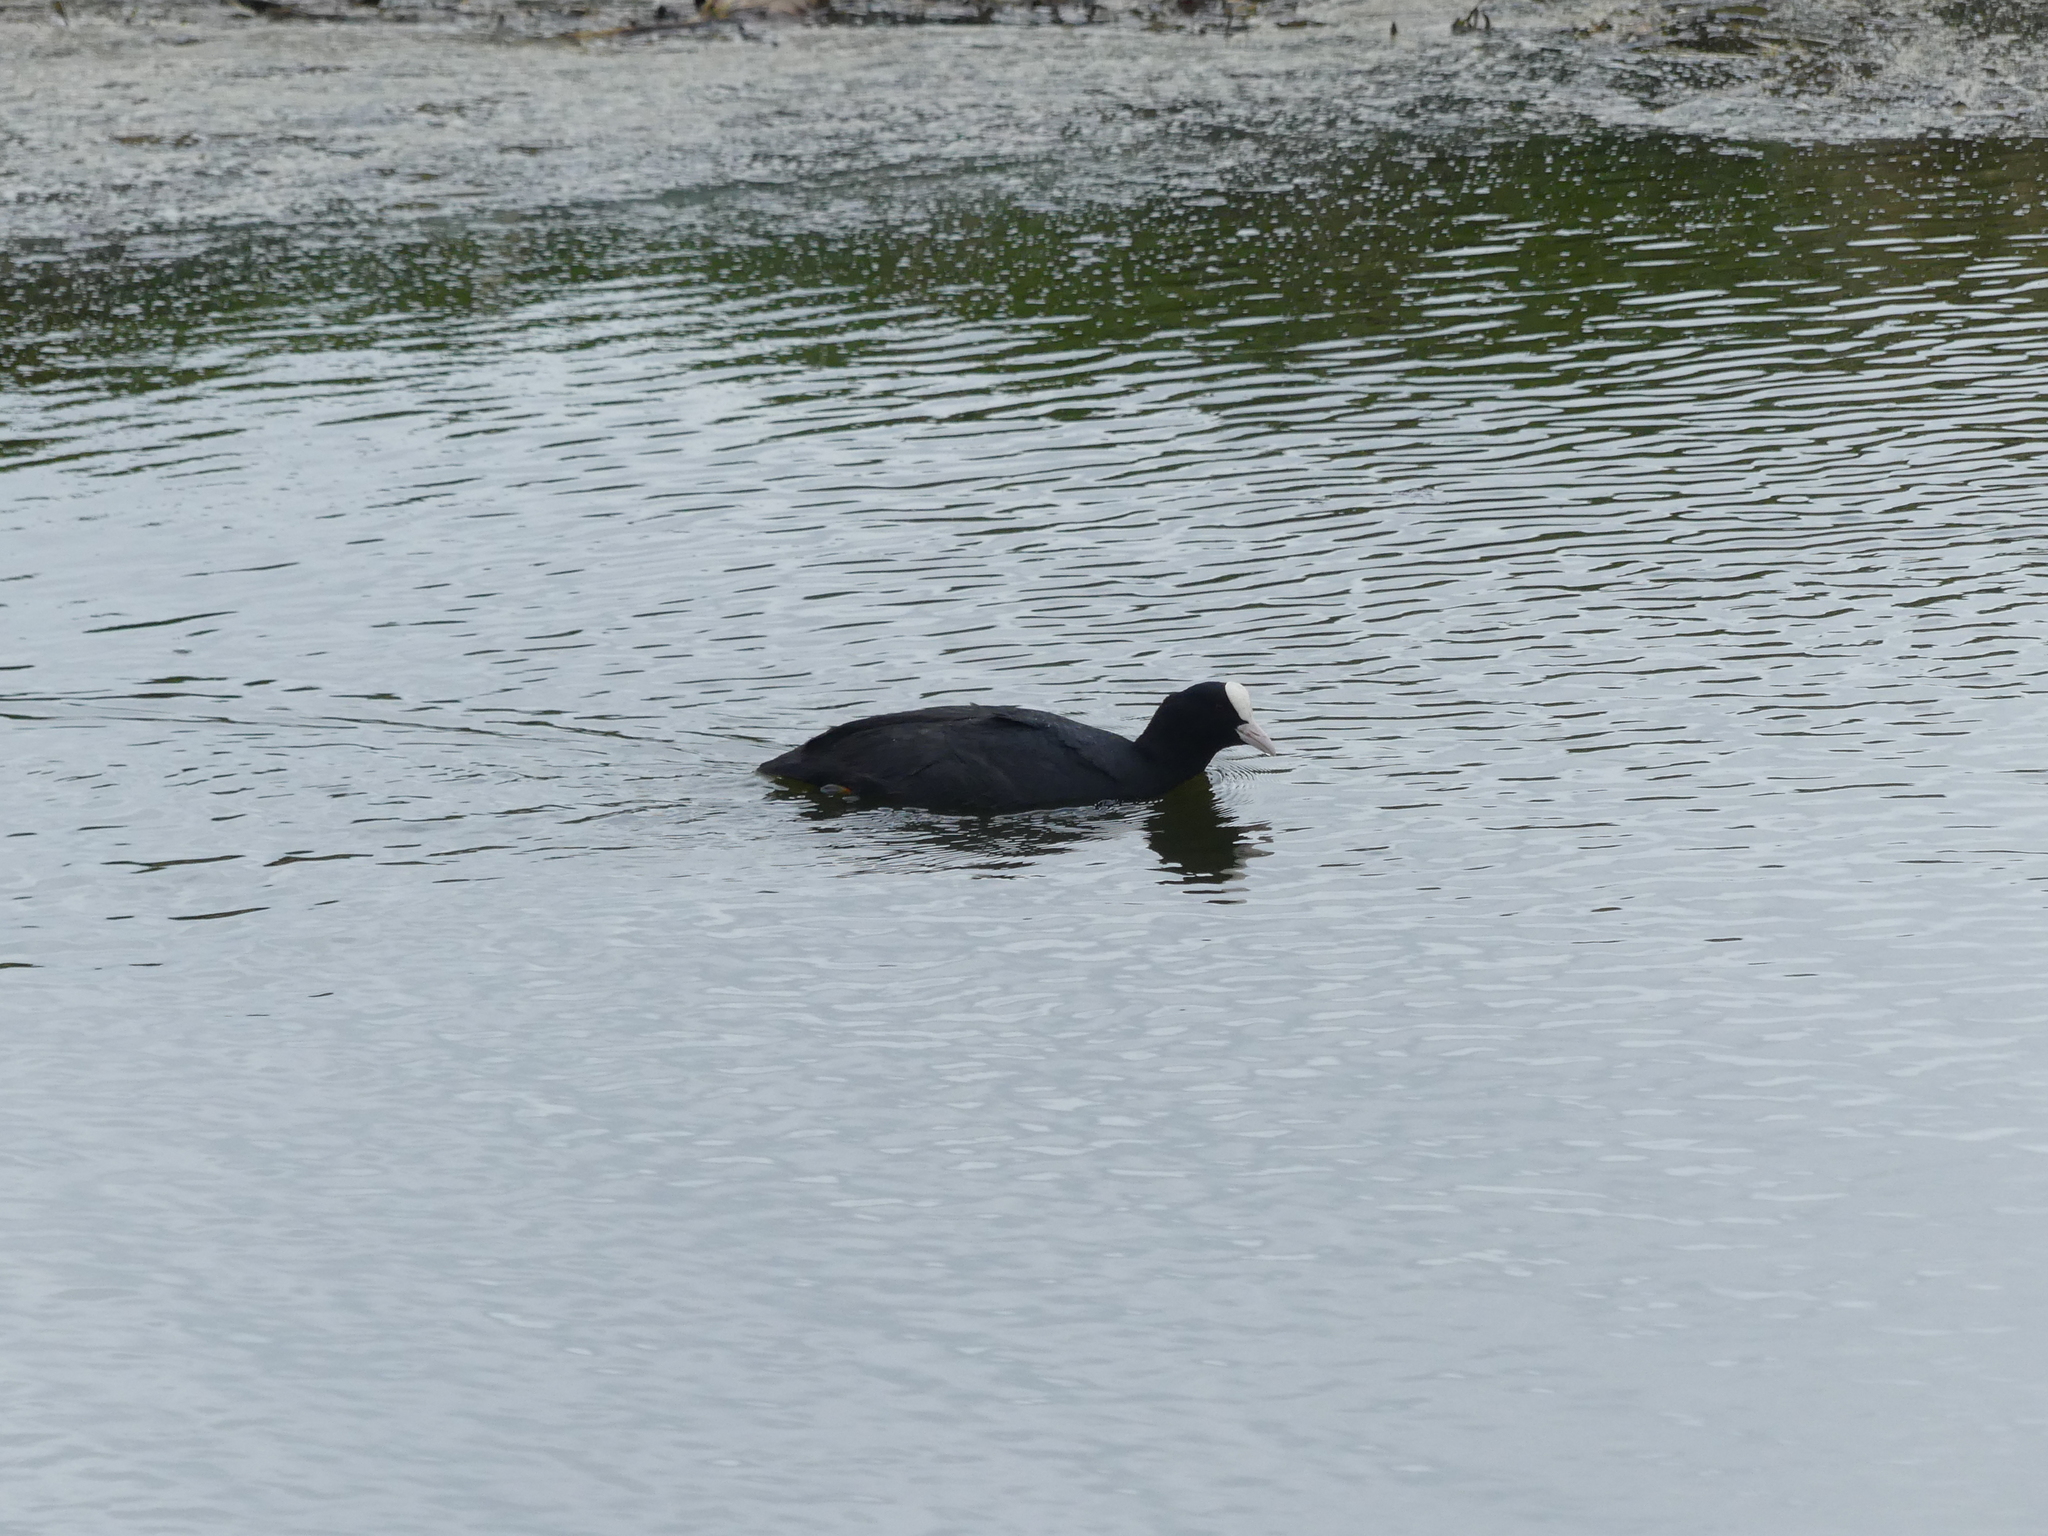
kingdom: Animalia
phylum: Chordata
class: Aves
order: Gruiformes
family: Rallidae
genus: Fulica
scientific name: Fulica atra
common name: Eurasian coot
